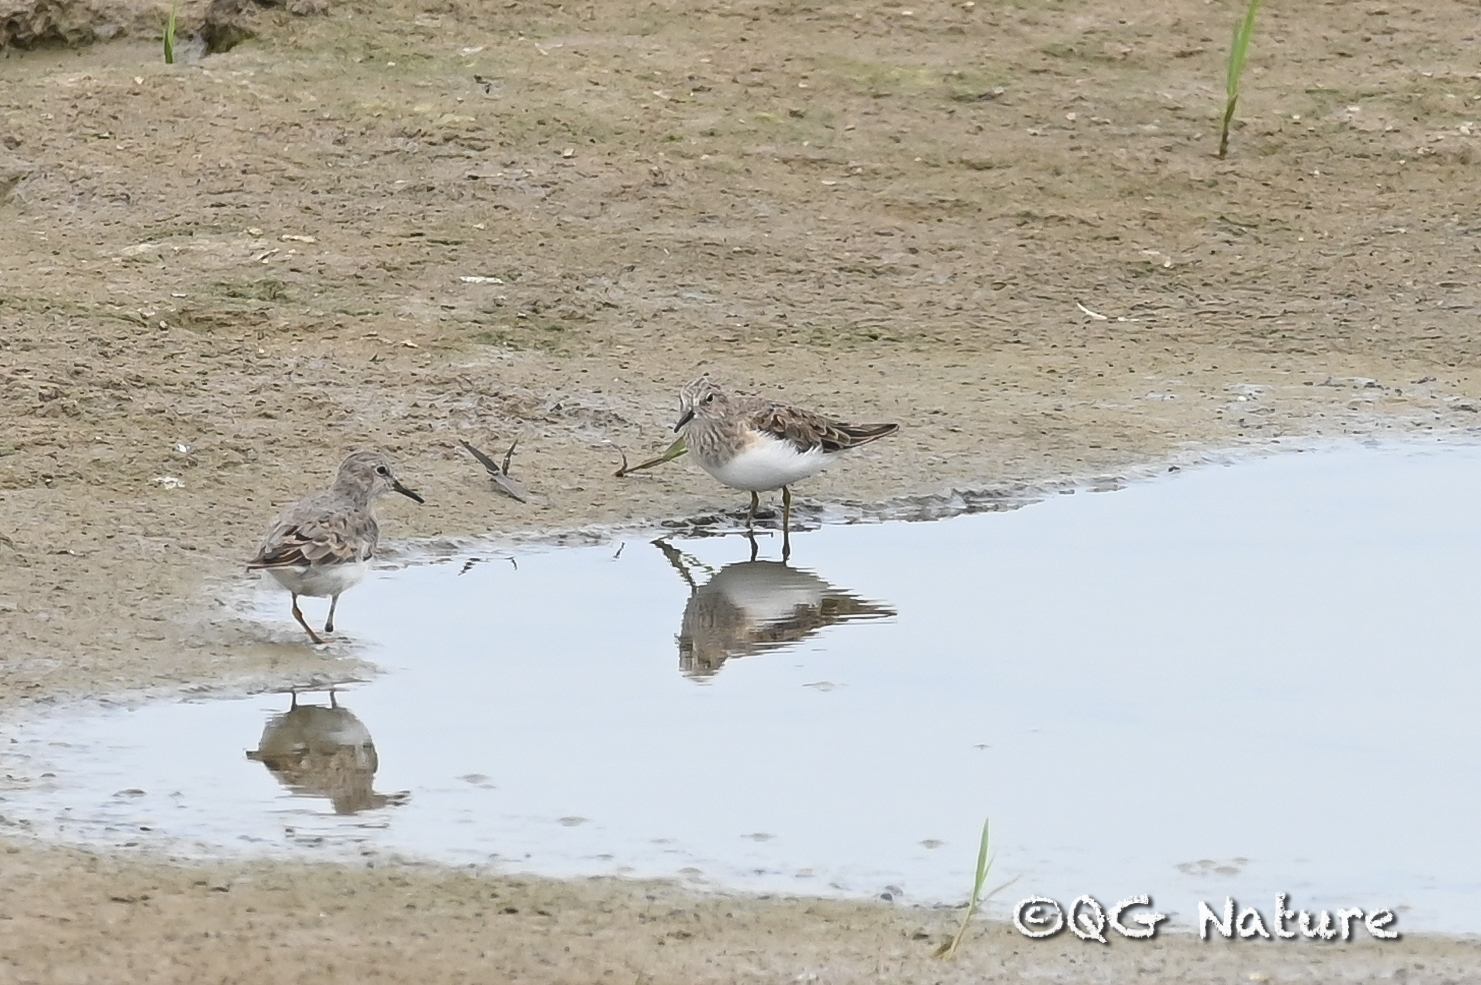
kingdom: Animalia
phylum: Chordata
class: Aves
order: Charadriiformes
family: Scolopacidae
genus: Calidris
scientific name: Calidris temminckii
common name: Temminck's stint
